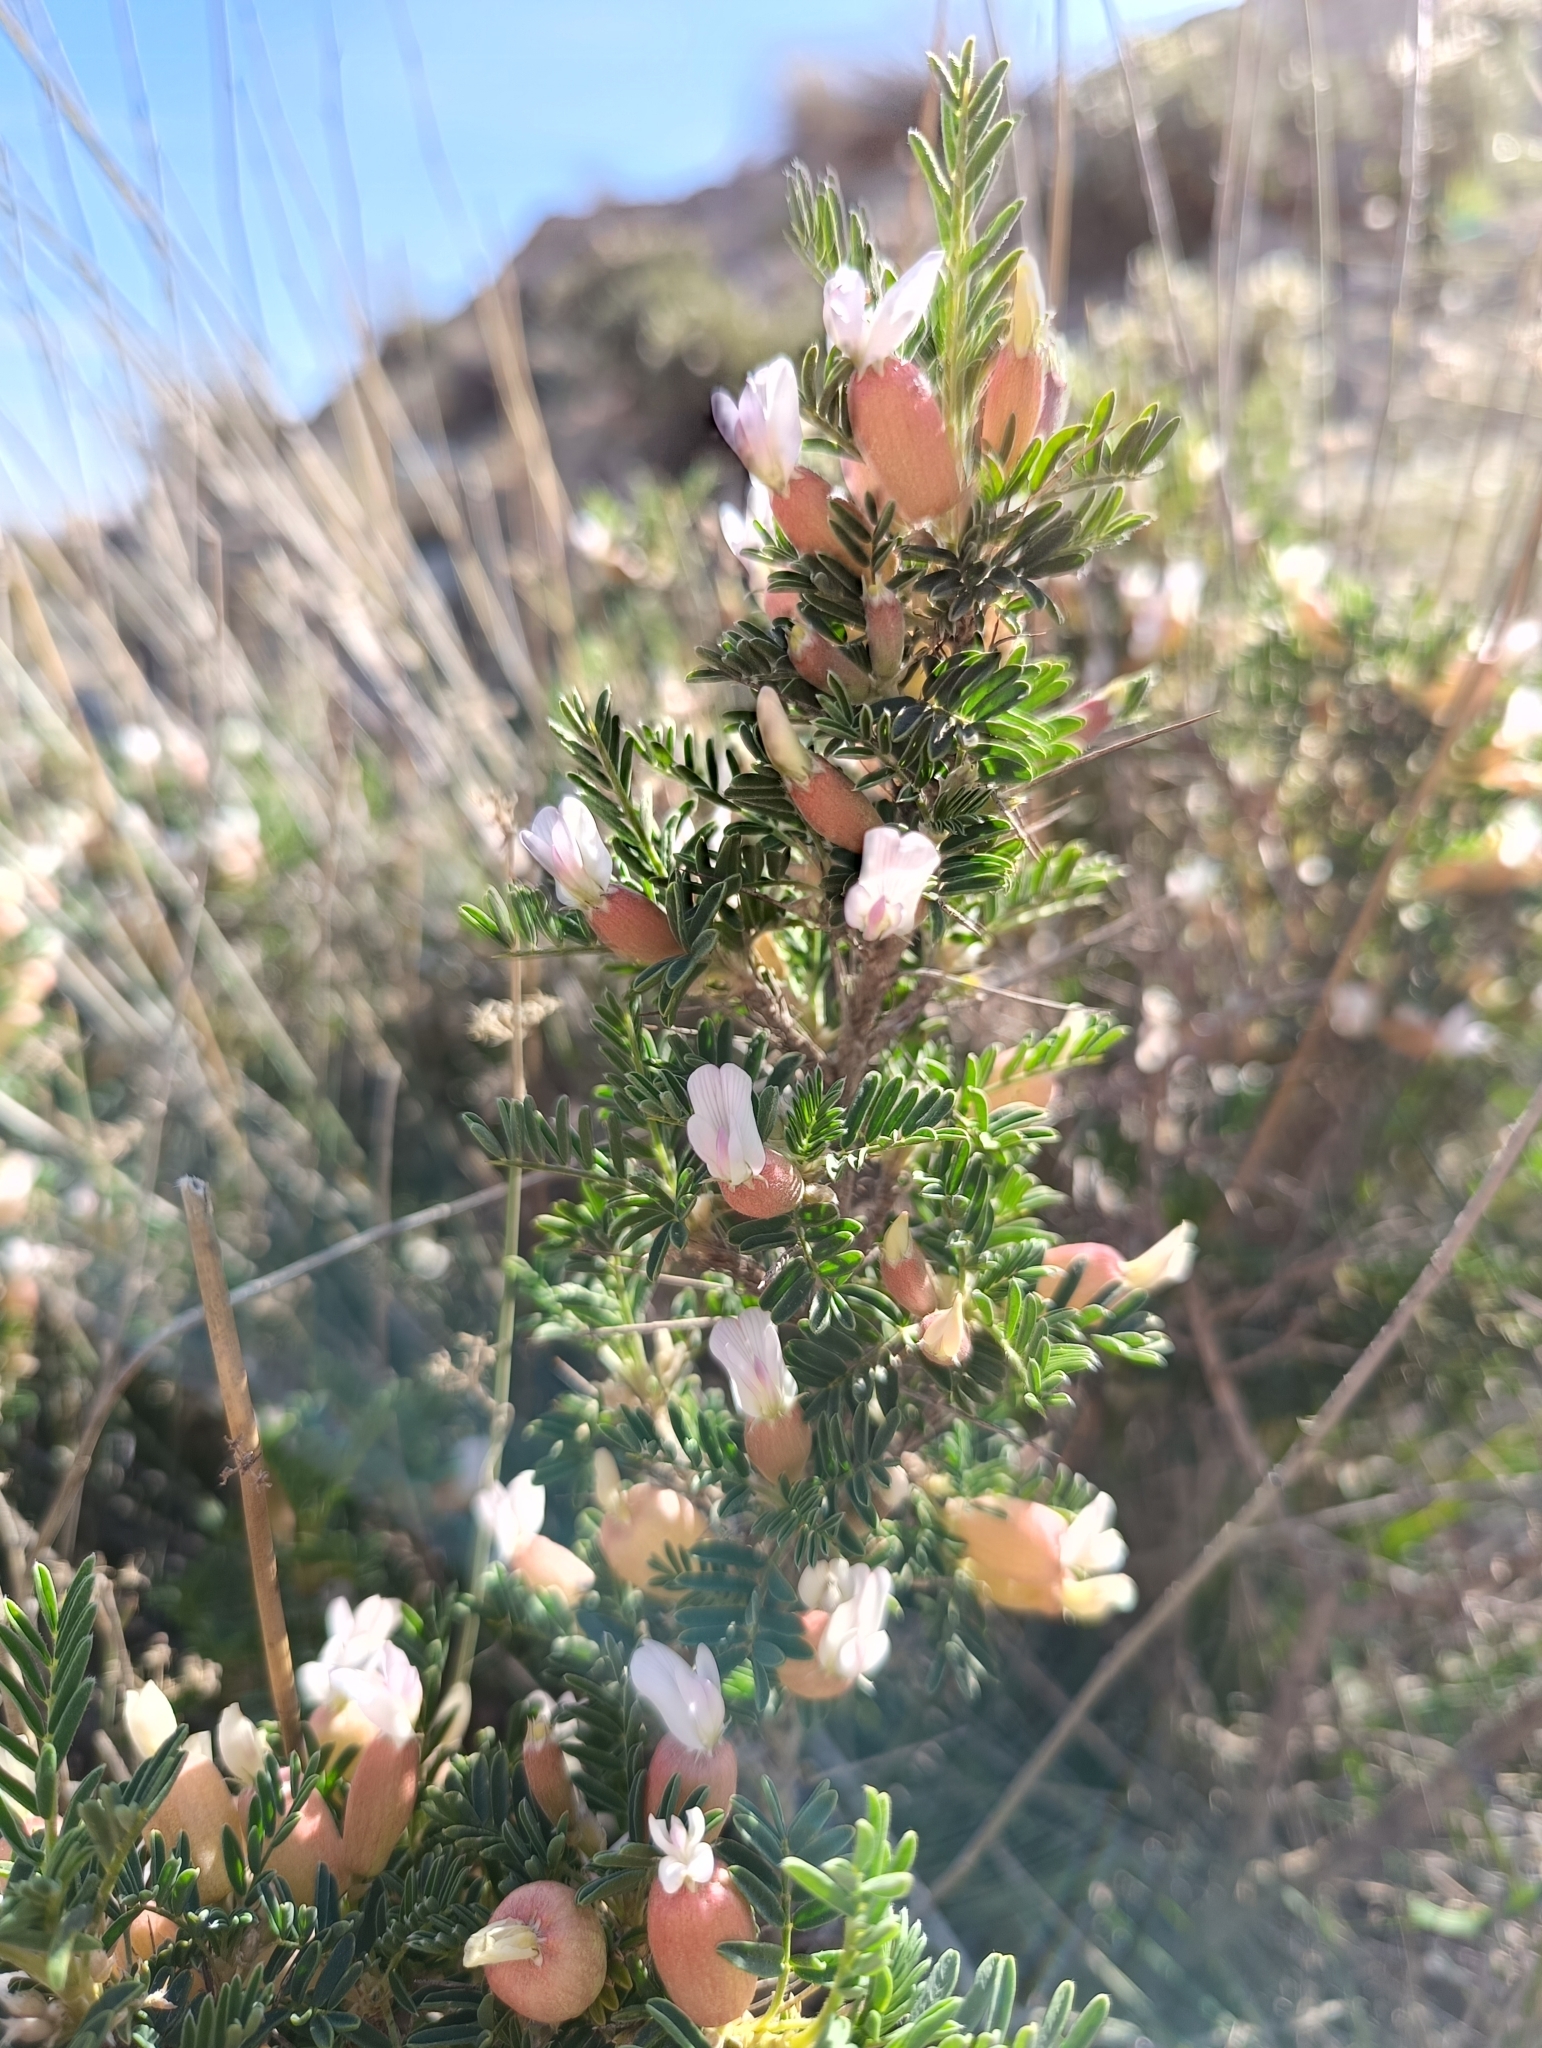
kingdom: Plantae
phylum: Tracheophyta
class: Magnoliopsida
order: Fabales
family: Fabaceae
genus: Astragalus
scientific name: Astragalus armatus
